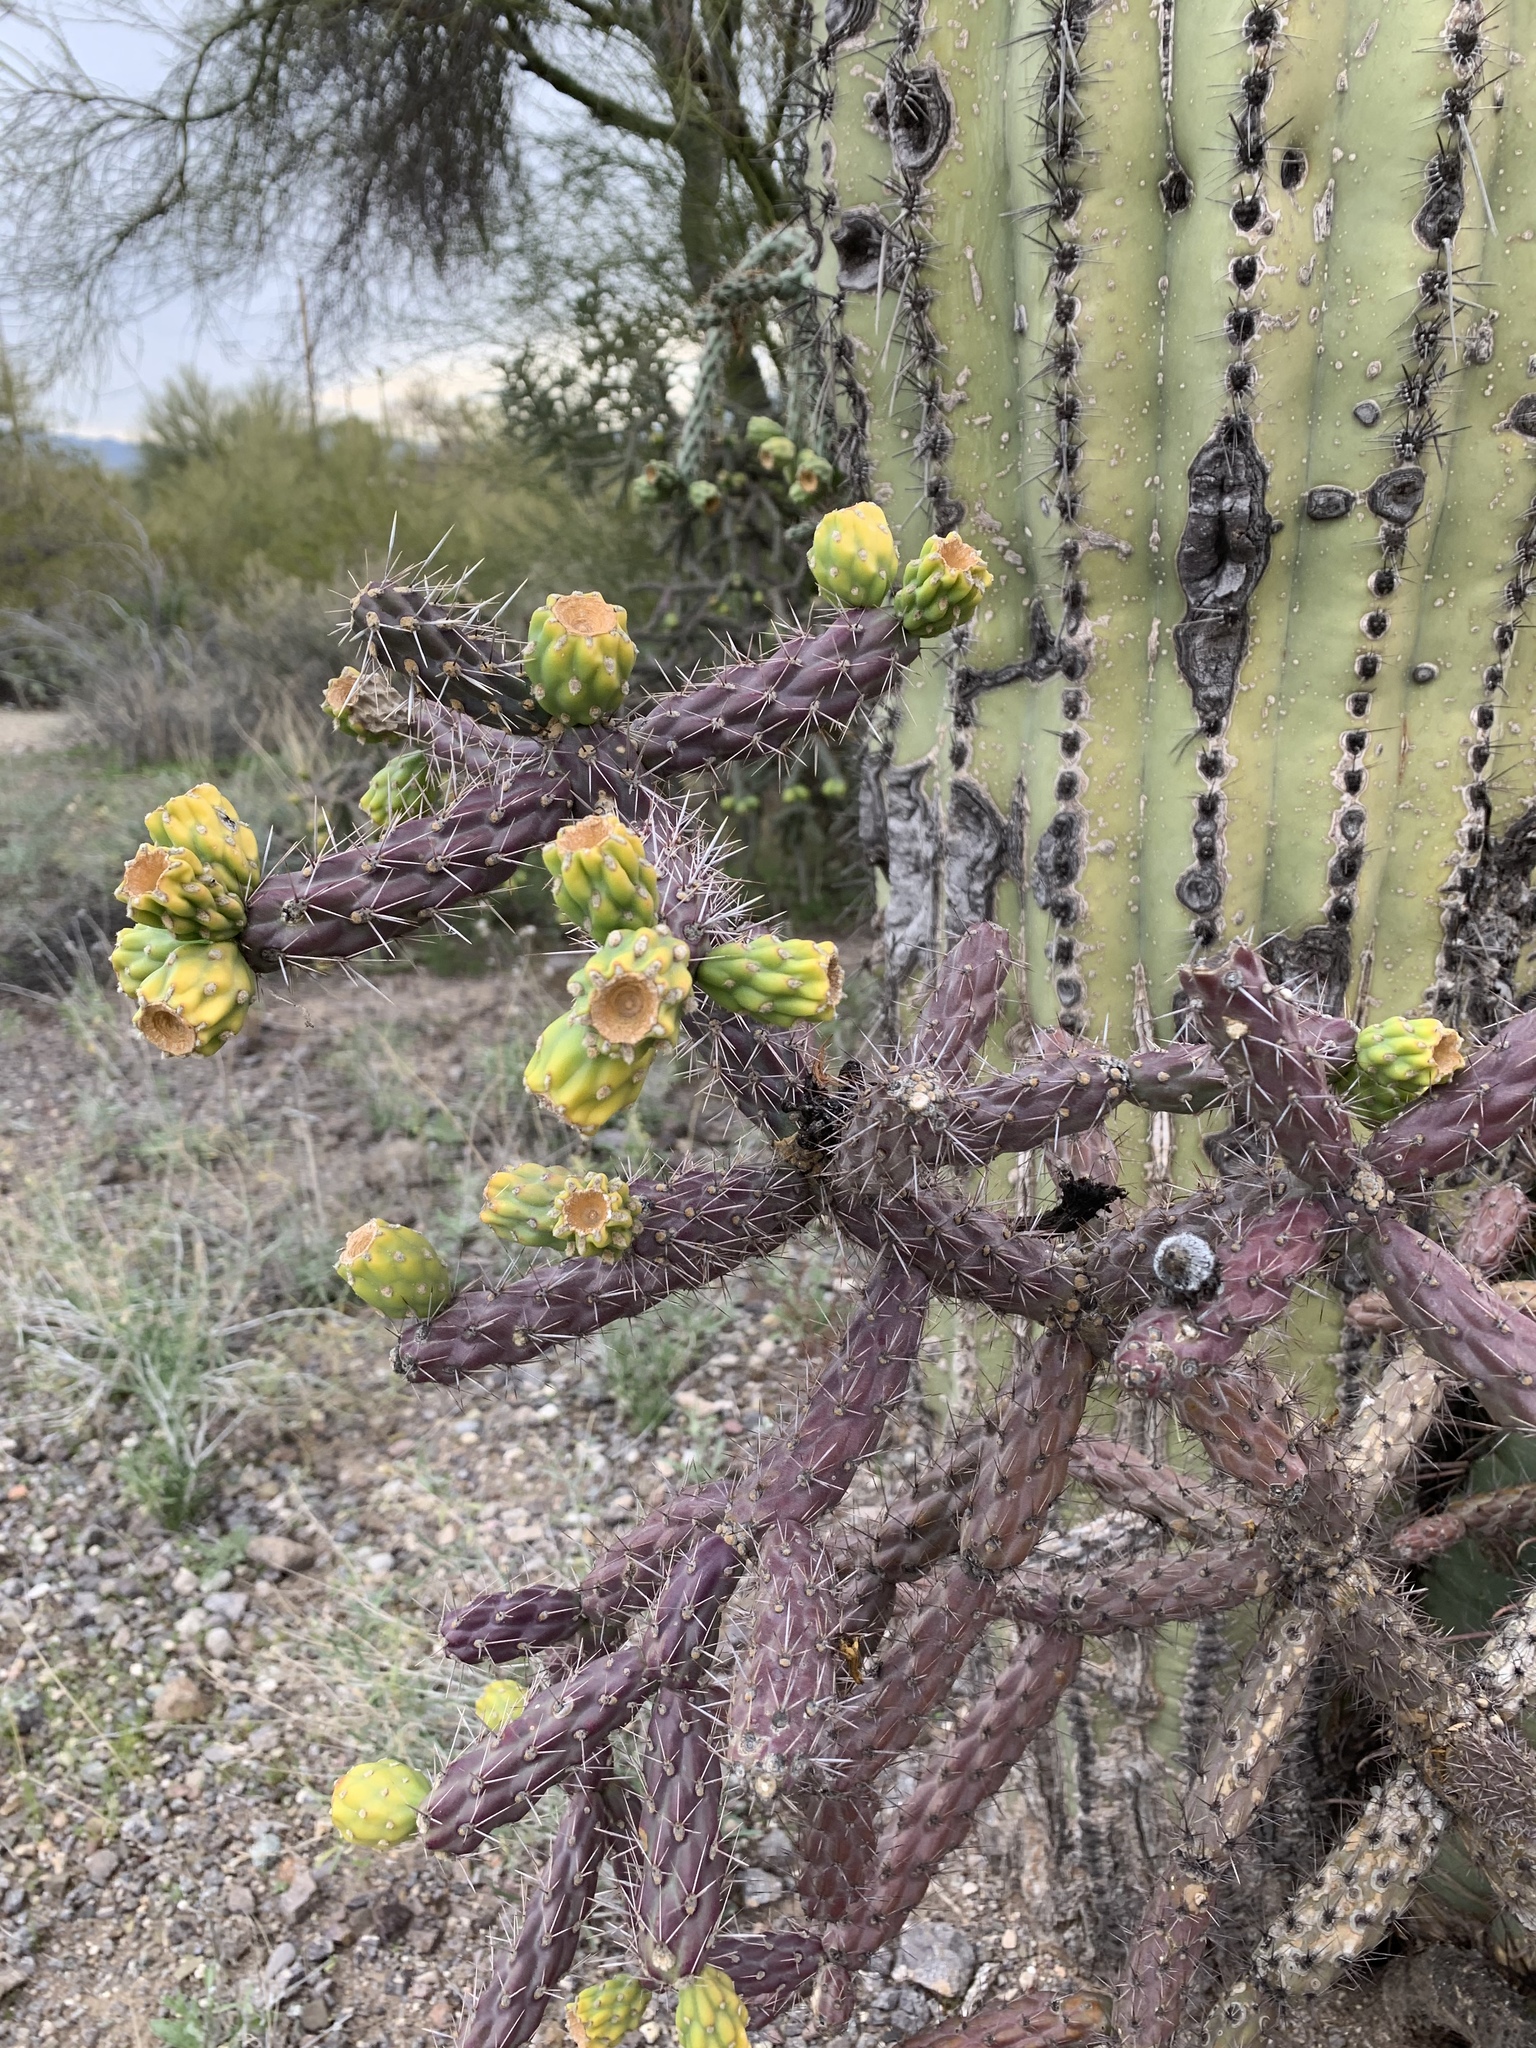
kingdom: Plantae
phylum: Tracheophyta
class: Magnoliopsida
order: Caryophyllales
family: Cactaceae
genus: Cylindropuntia
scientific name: Cylindropuntia thurberi
